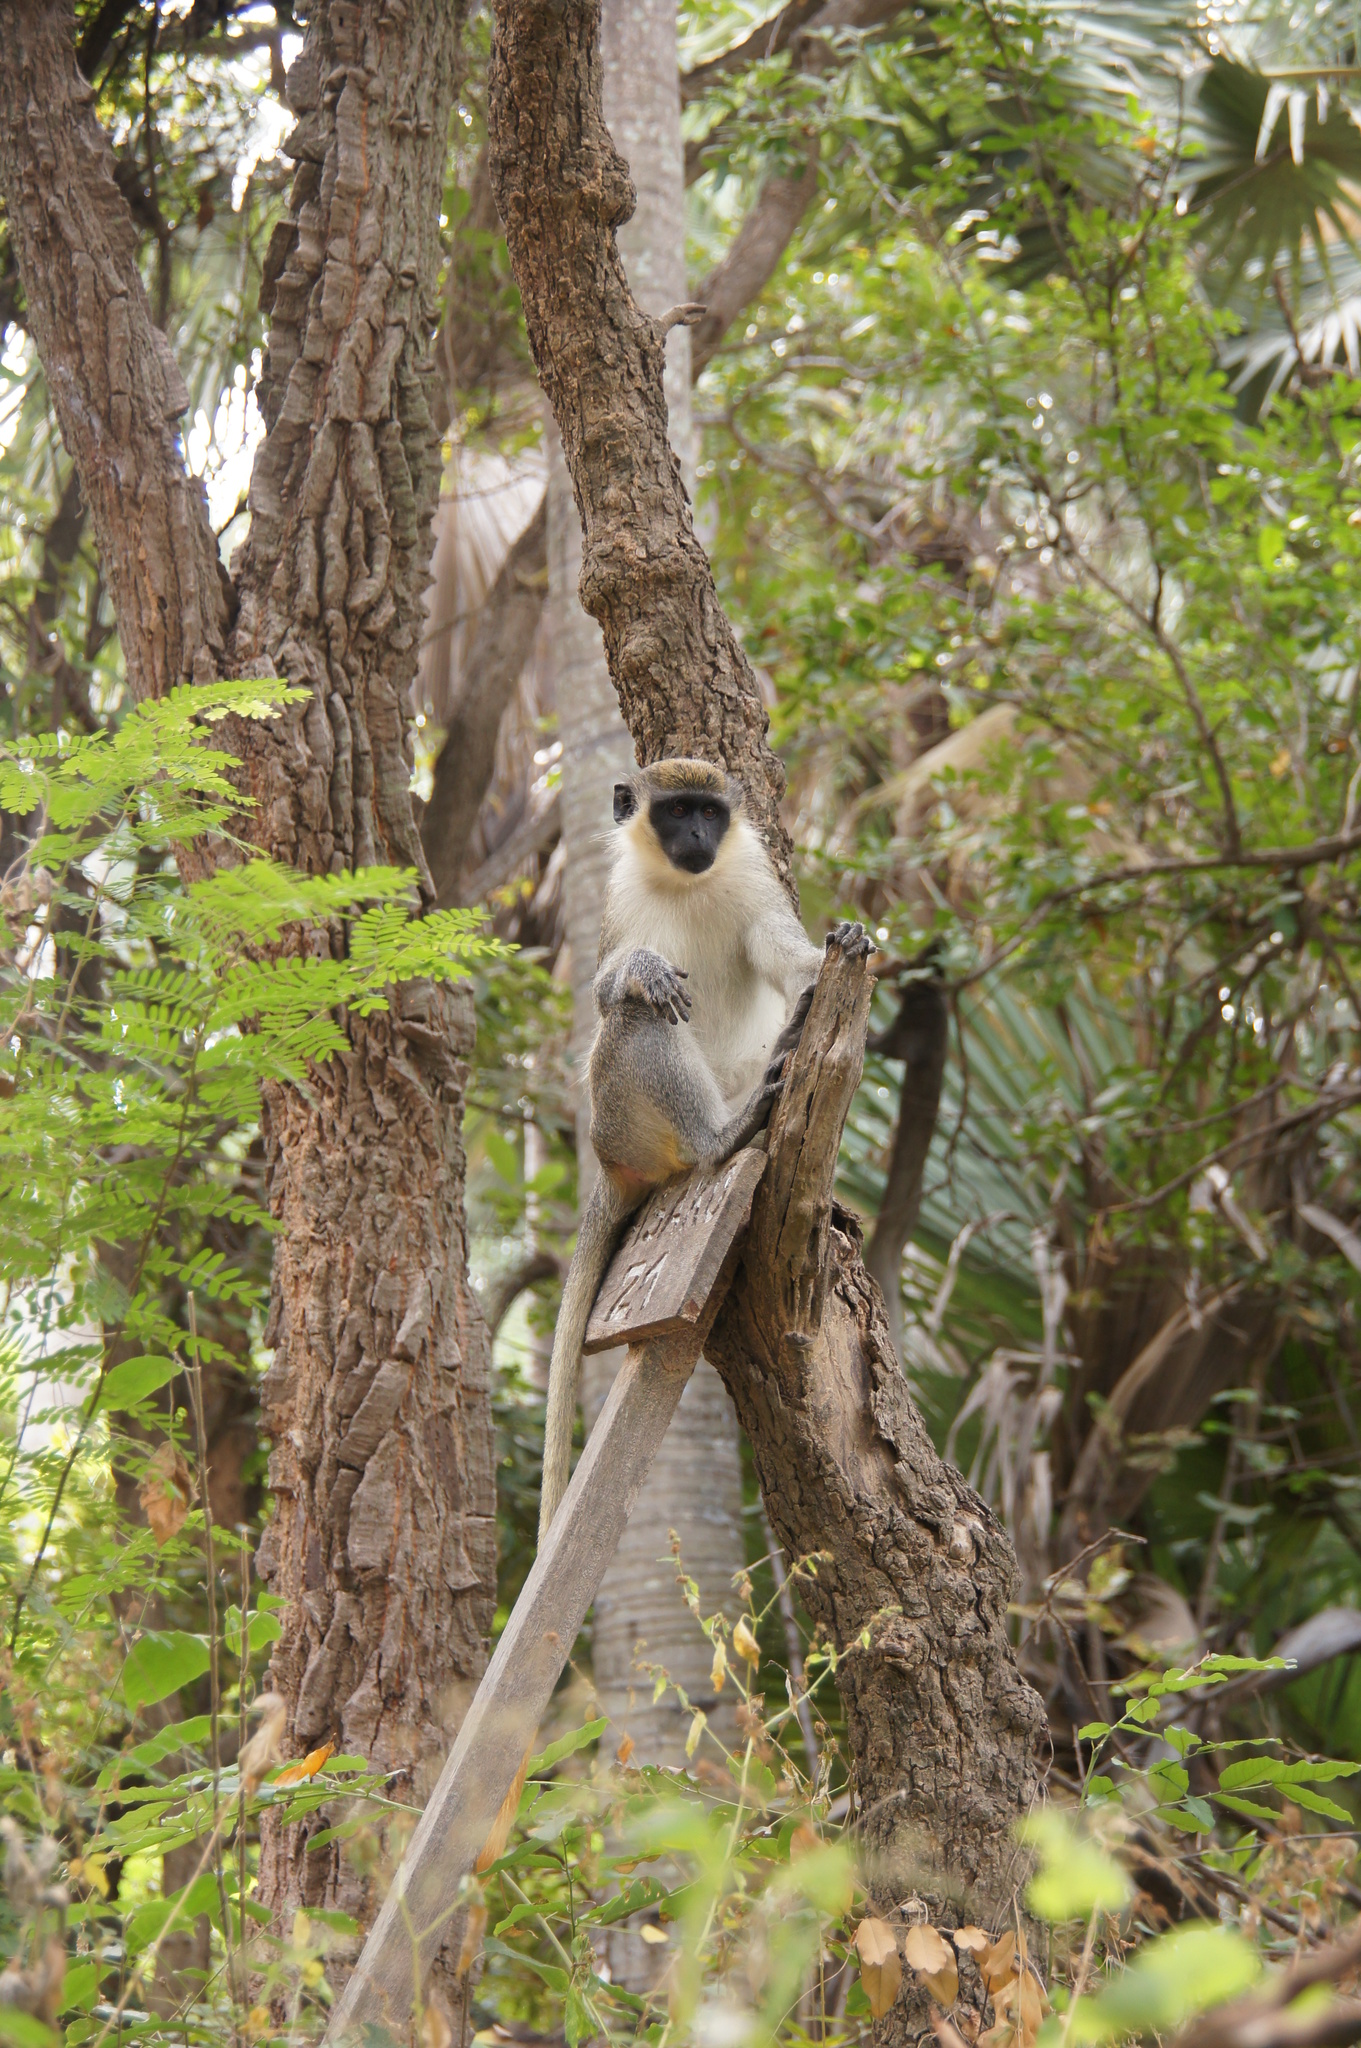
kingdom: Animalia
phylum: Chordata
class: Mammalia
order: Primates
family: Cercopithecidae
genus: Chlorocebus
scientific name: Chlorocebus sabaeus
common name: Green monkey
